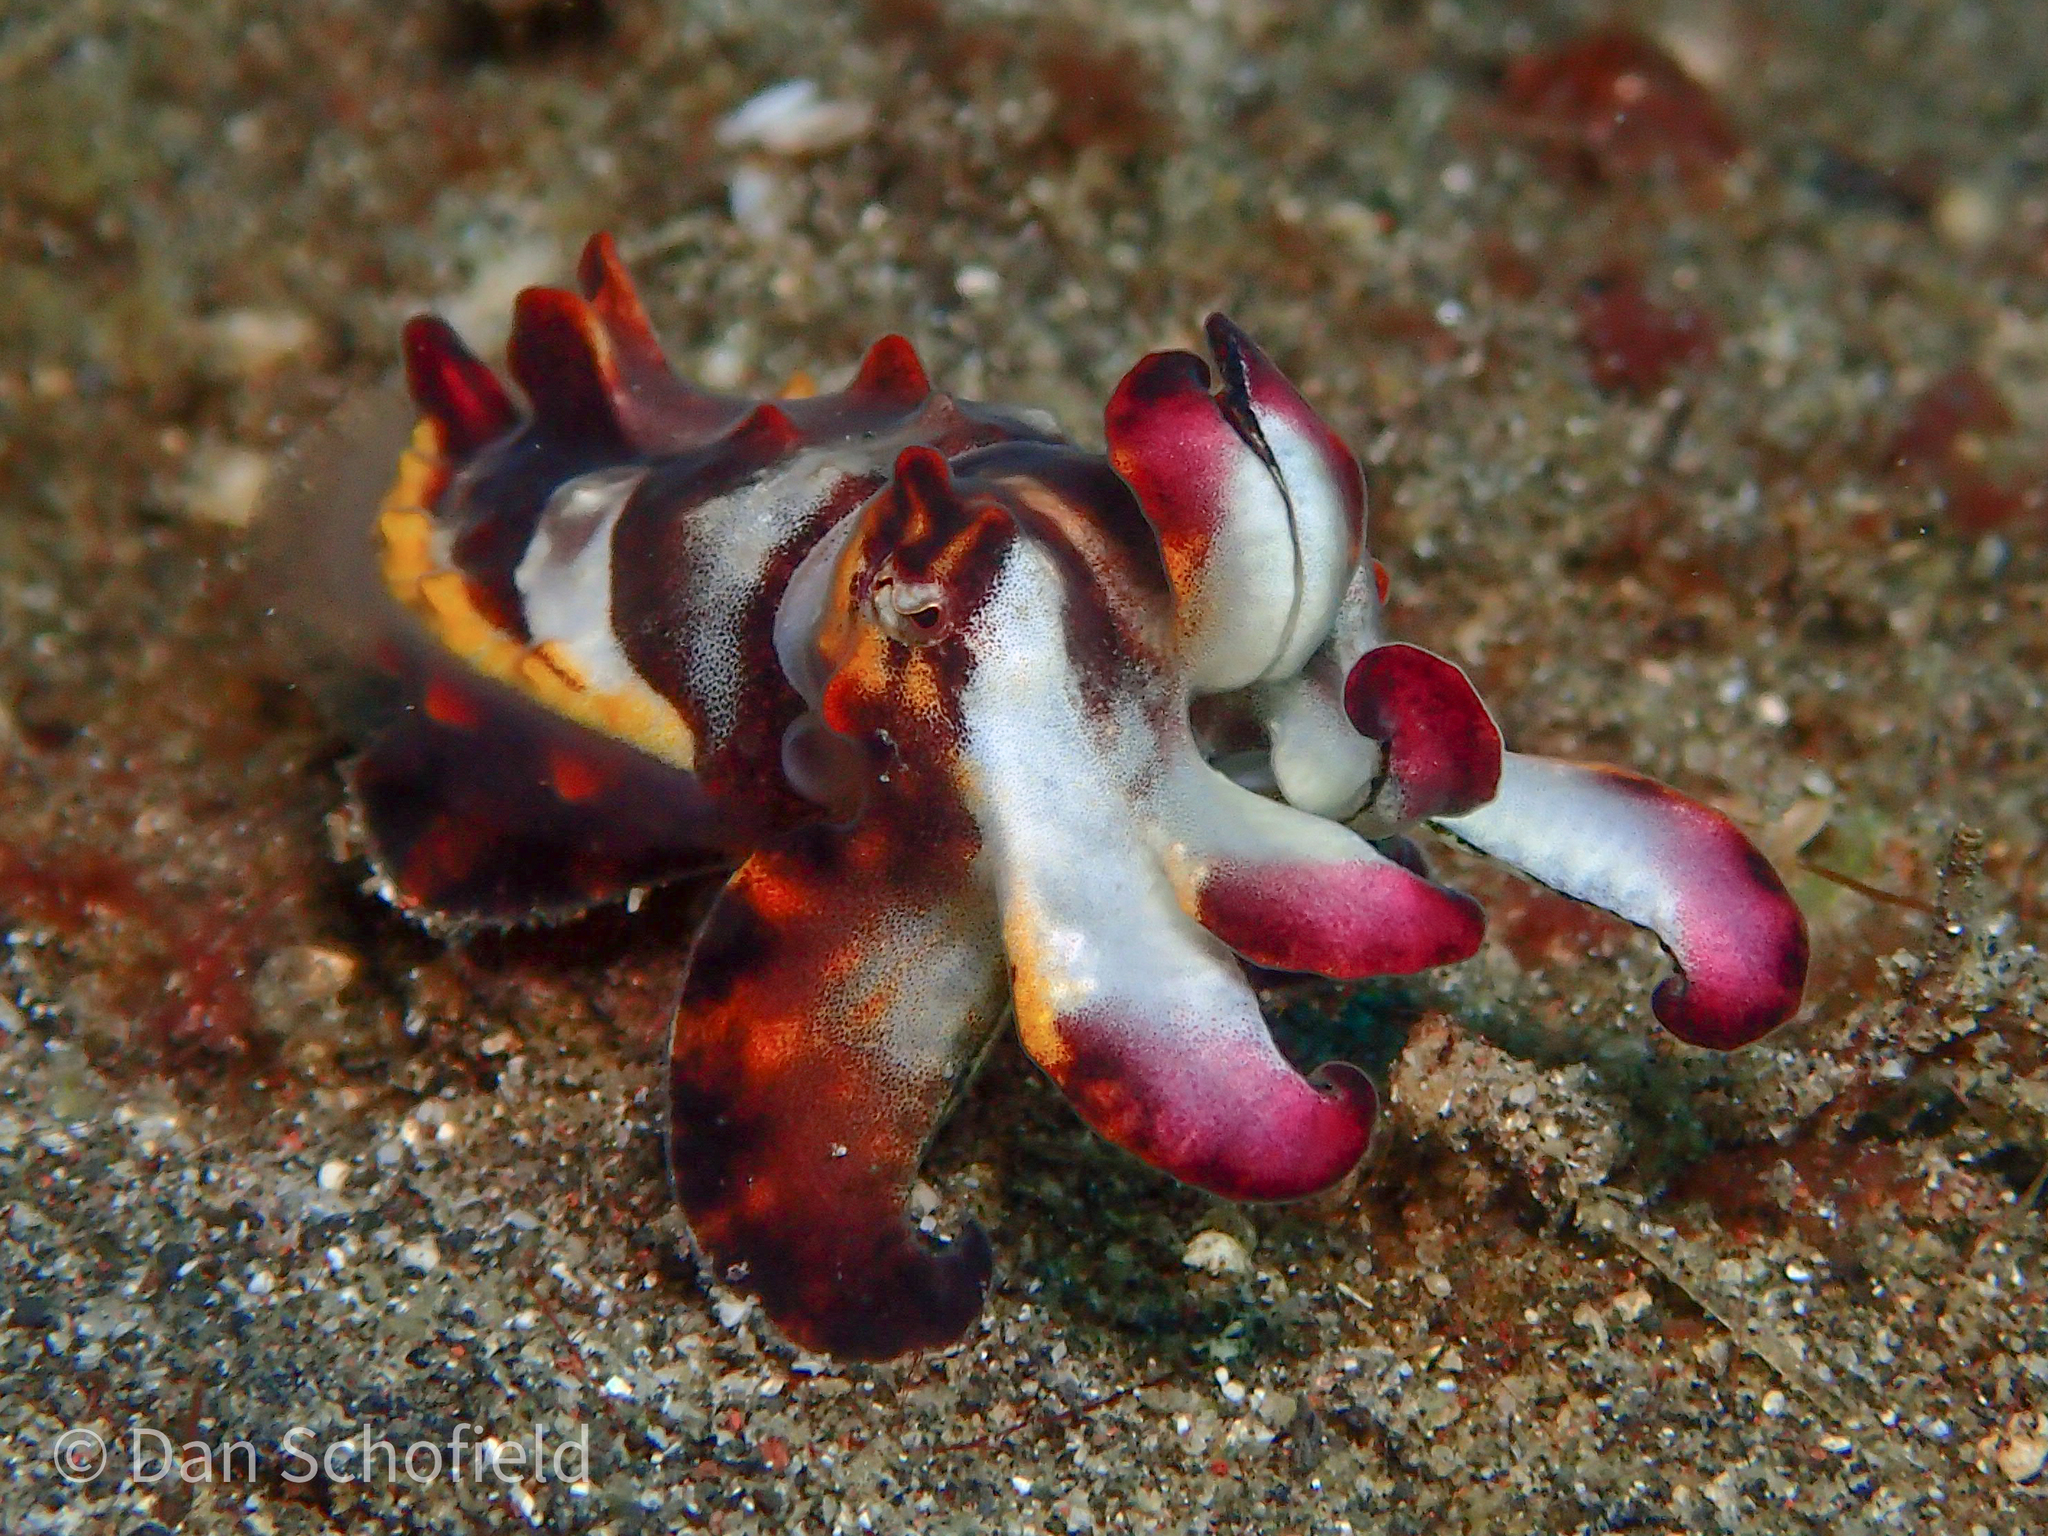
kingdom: Animalia
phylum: Mollusca
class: Cephalopoda
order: Sepiida
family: Sepiidae
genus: Ascarosepion
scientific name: Ascarosepion pfefferi
